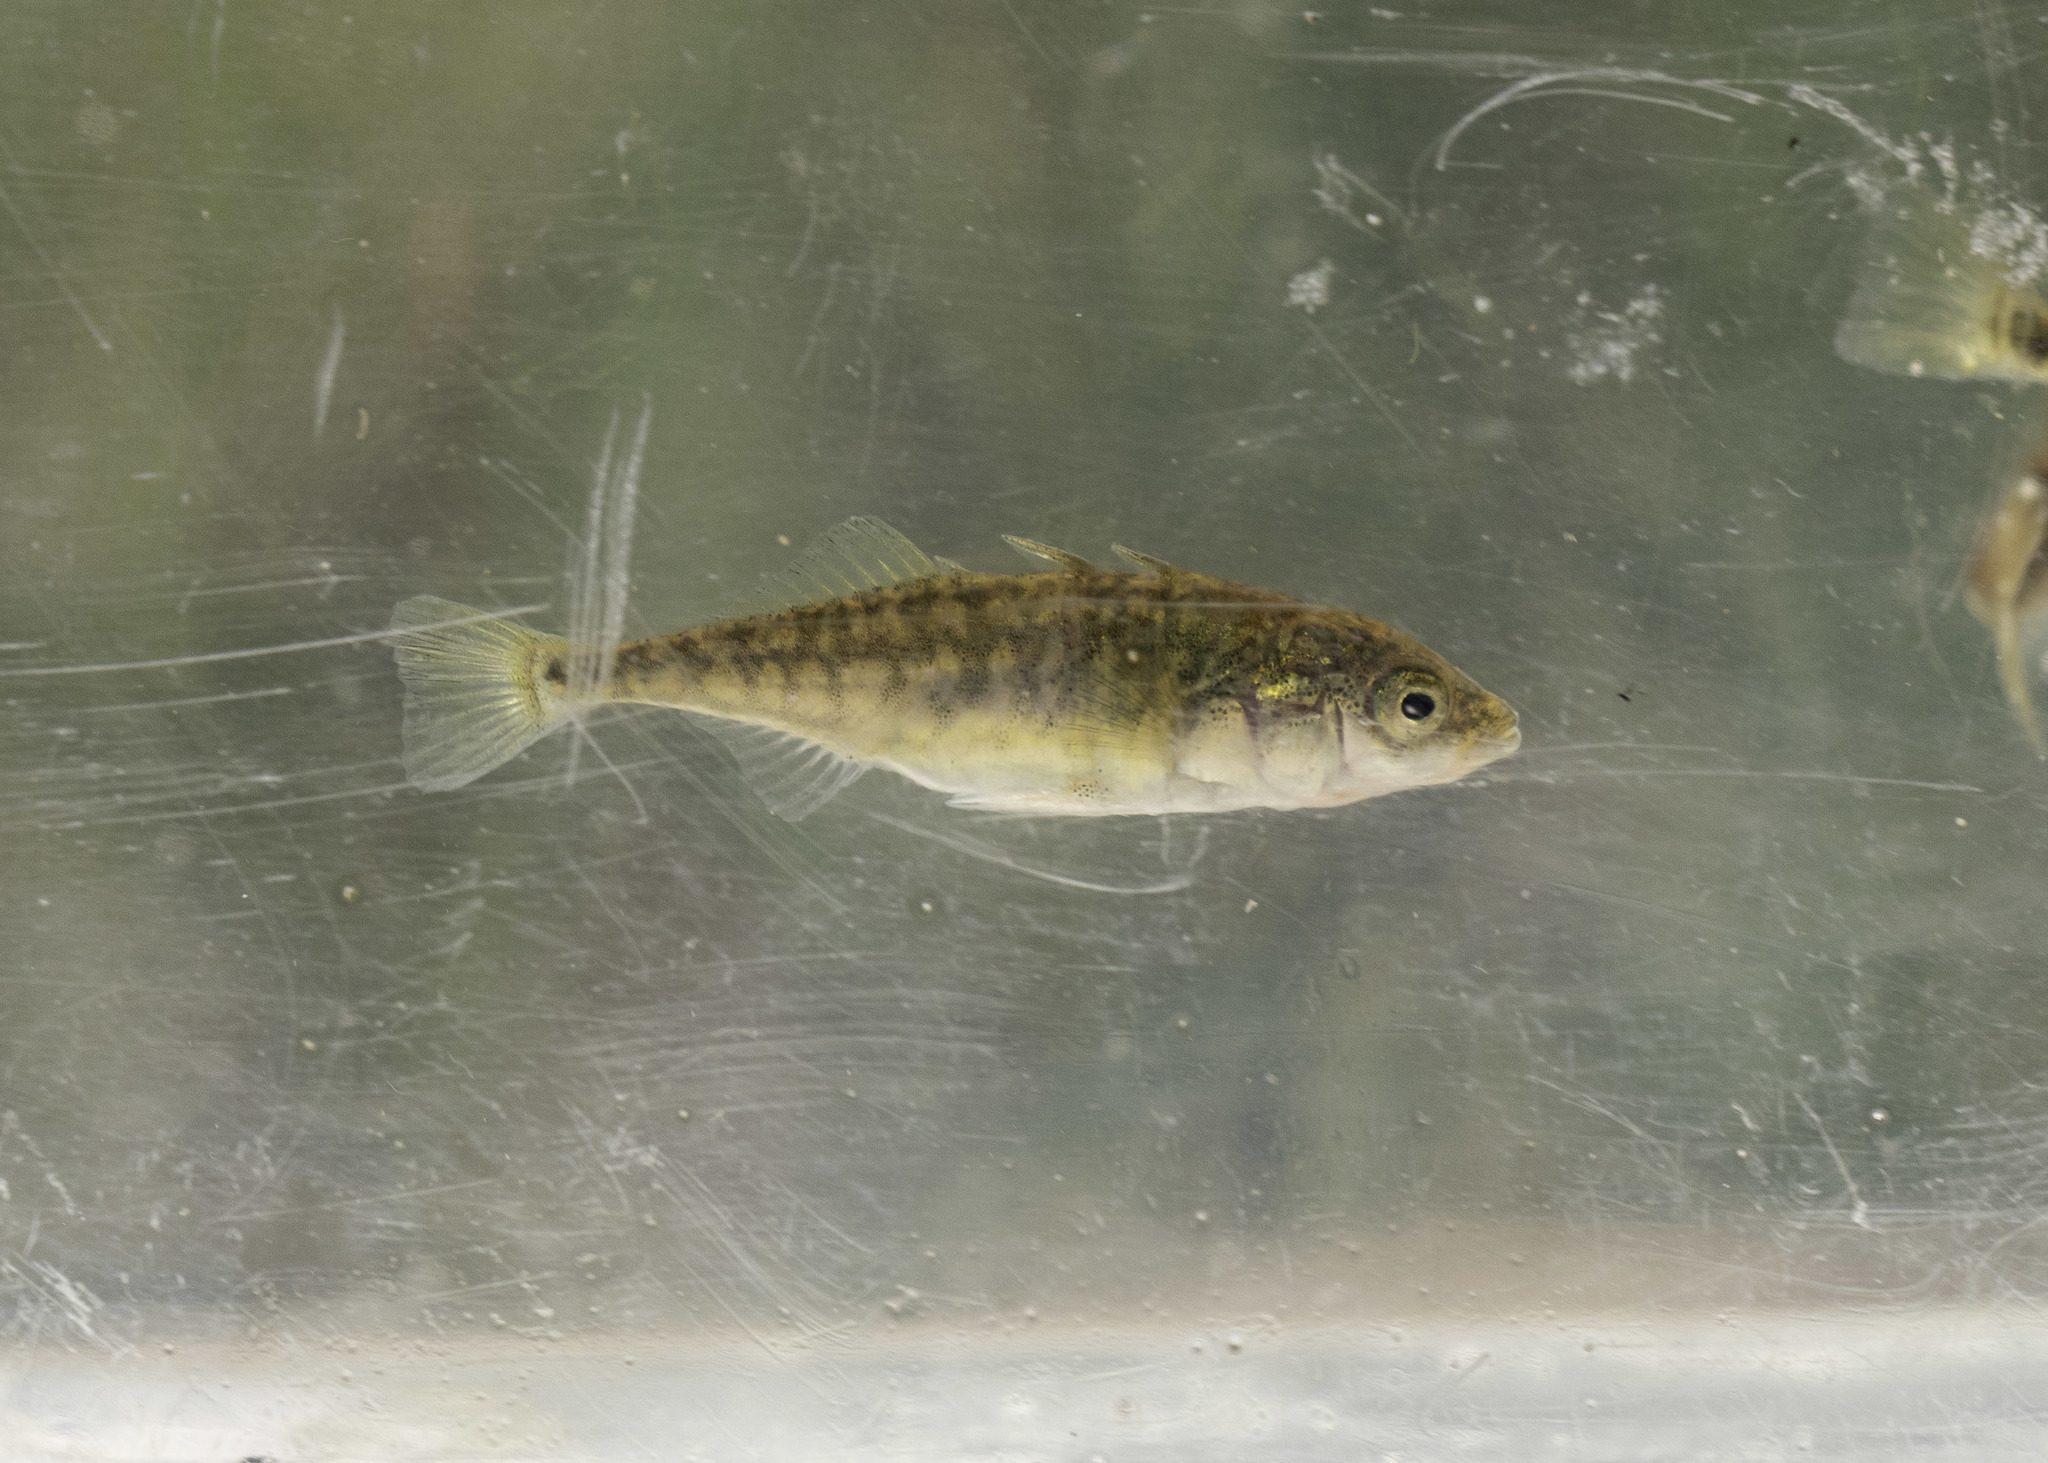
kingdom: Animalia
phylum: Chordata
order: Gasterosteiformes
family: Gasterosteidae
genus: Gasterosteus
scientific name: Gasterosteus aculeatus
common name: Three-spined stickleback
